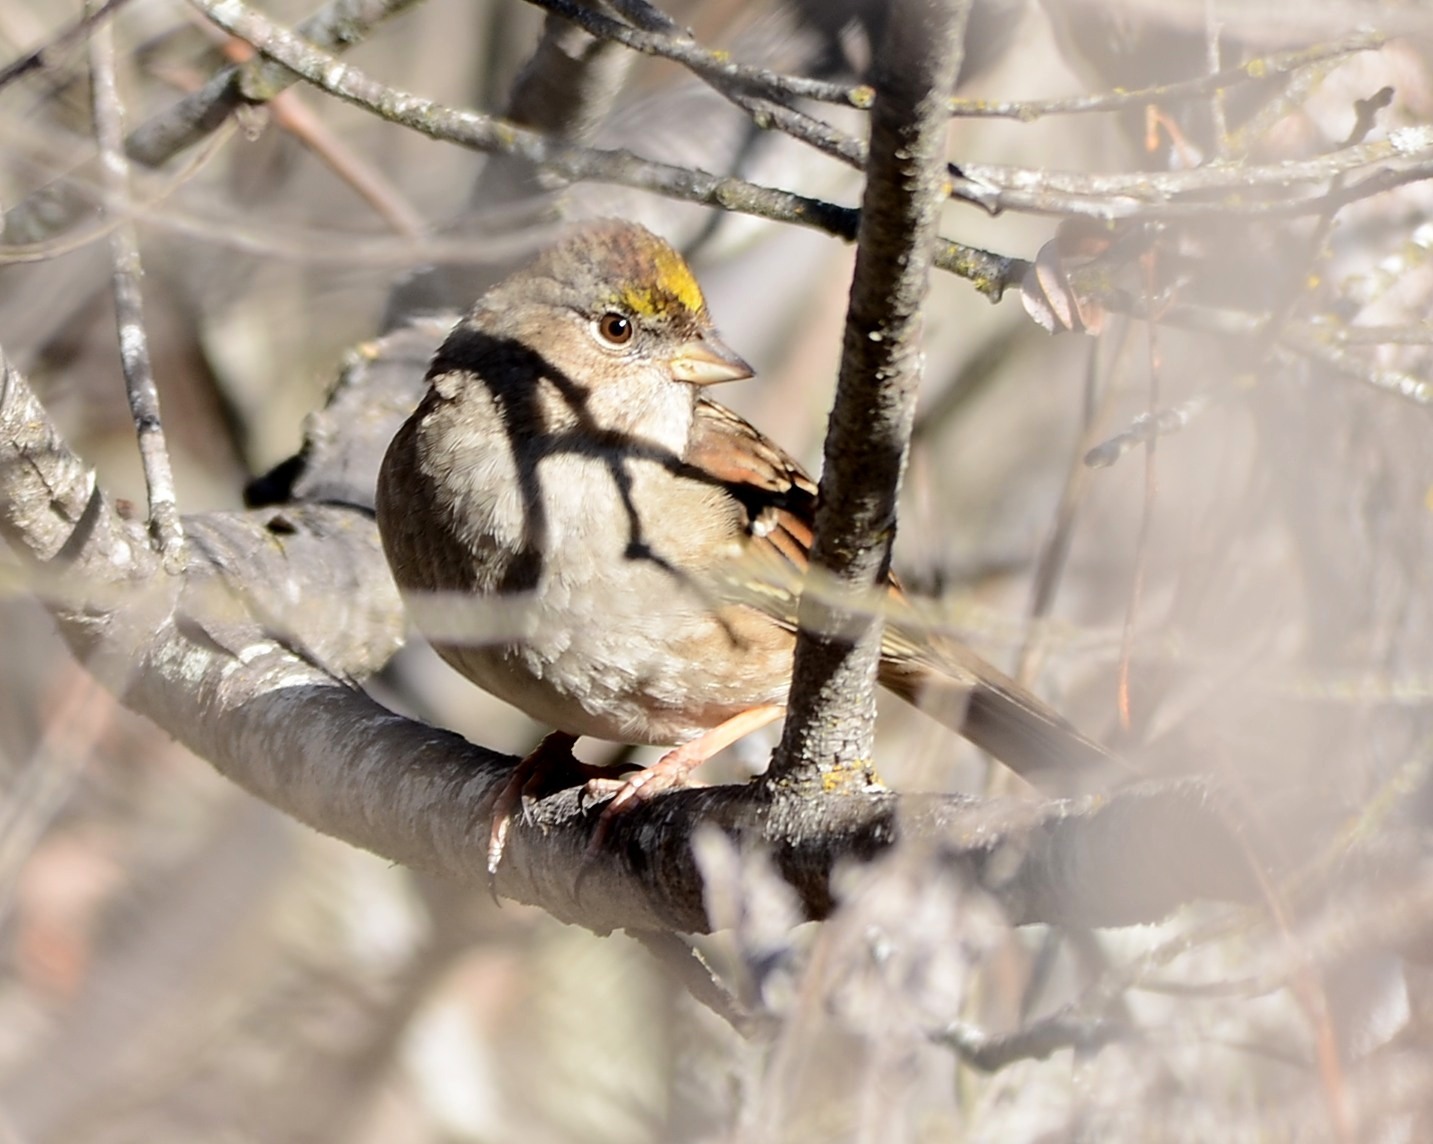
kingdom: Animalia
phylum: Chordata
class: Aves
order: Passeriformes
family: Passerellidae
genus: Zonotrichia
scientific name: Zonotrichia atricapilla
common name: Golden-crowned sparrow
